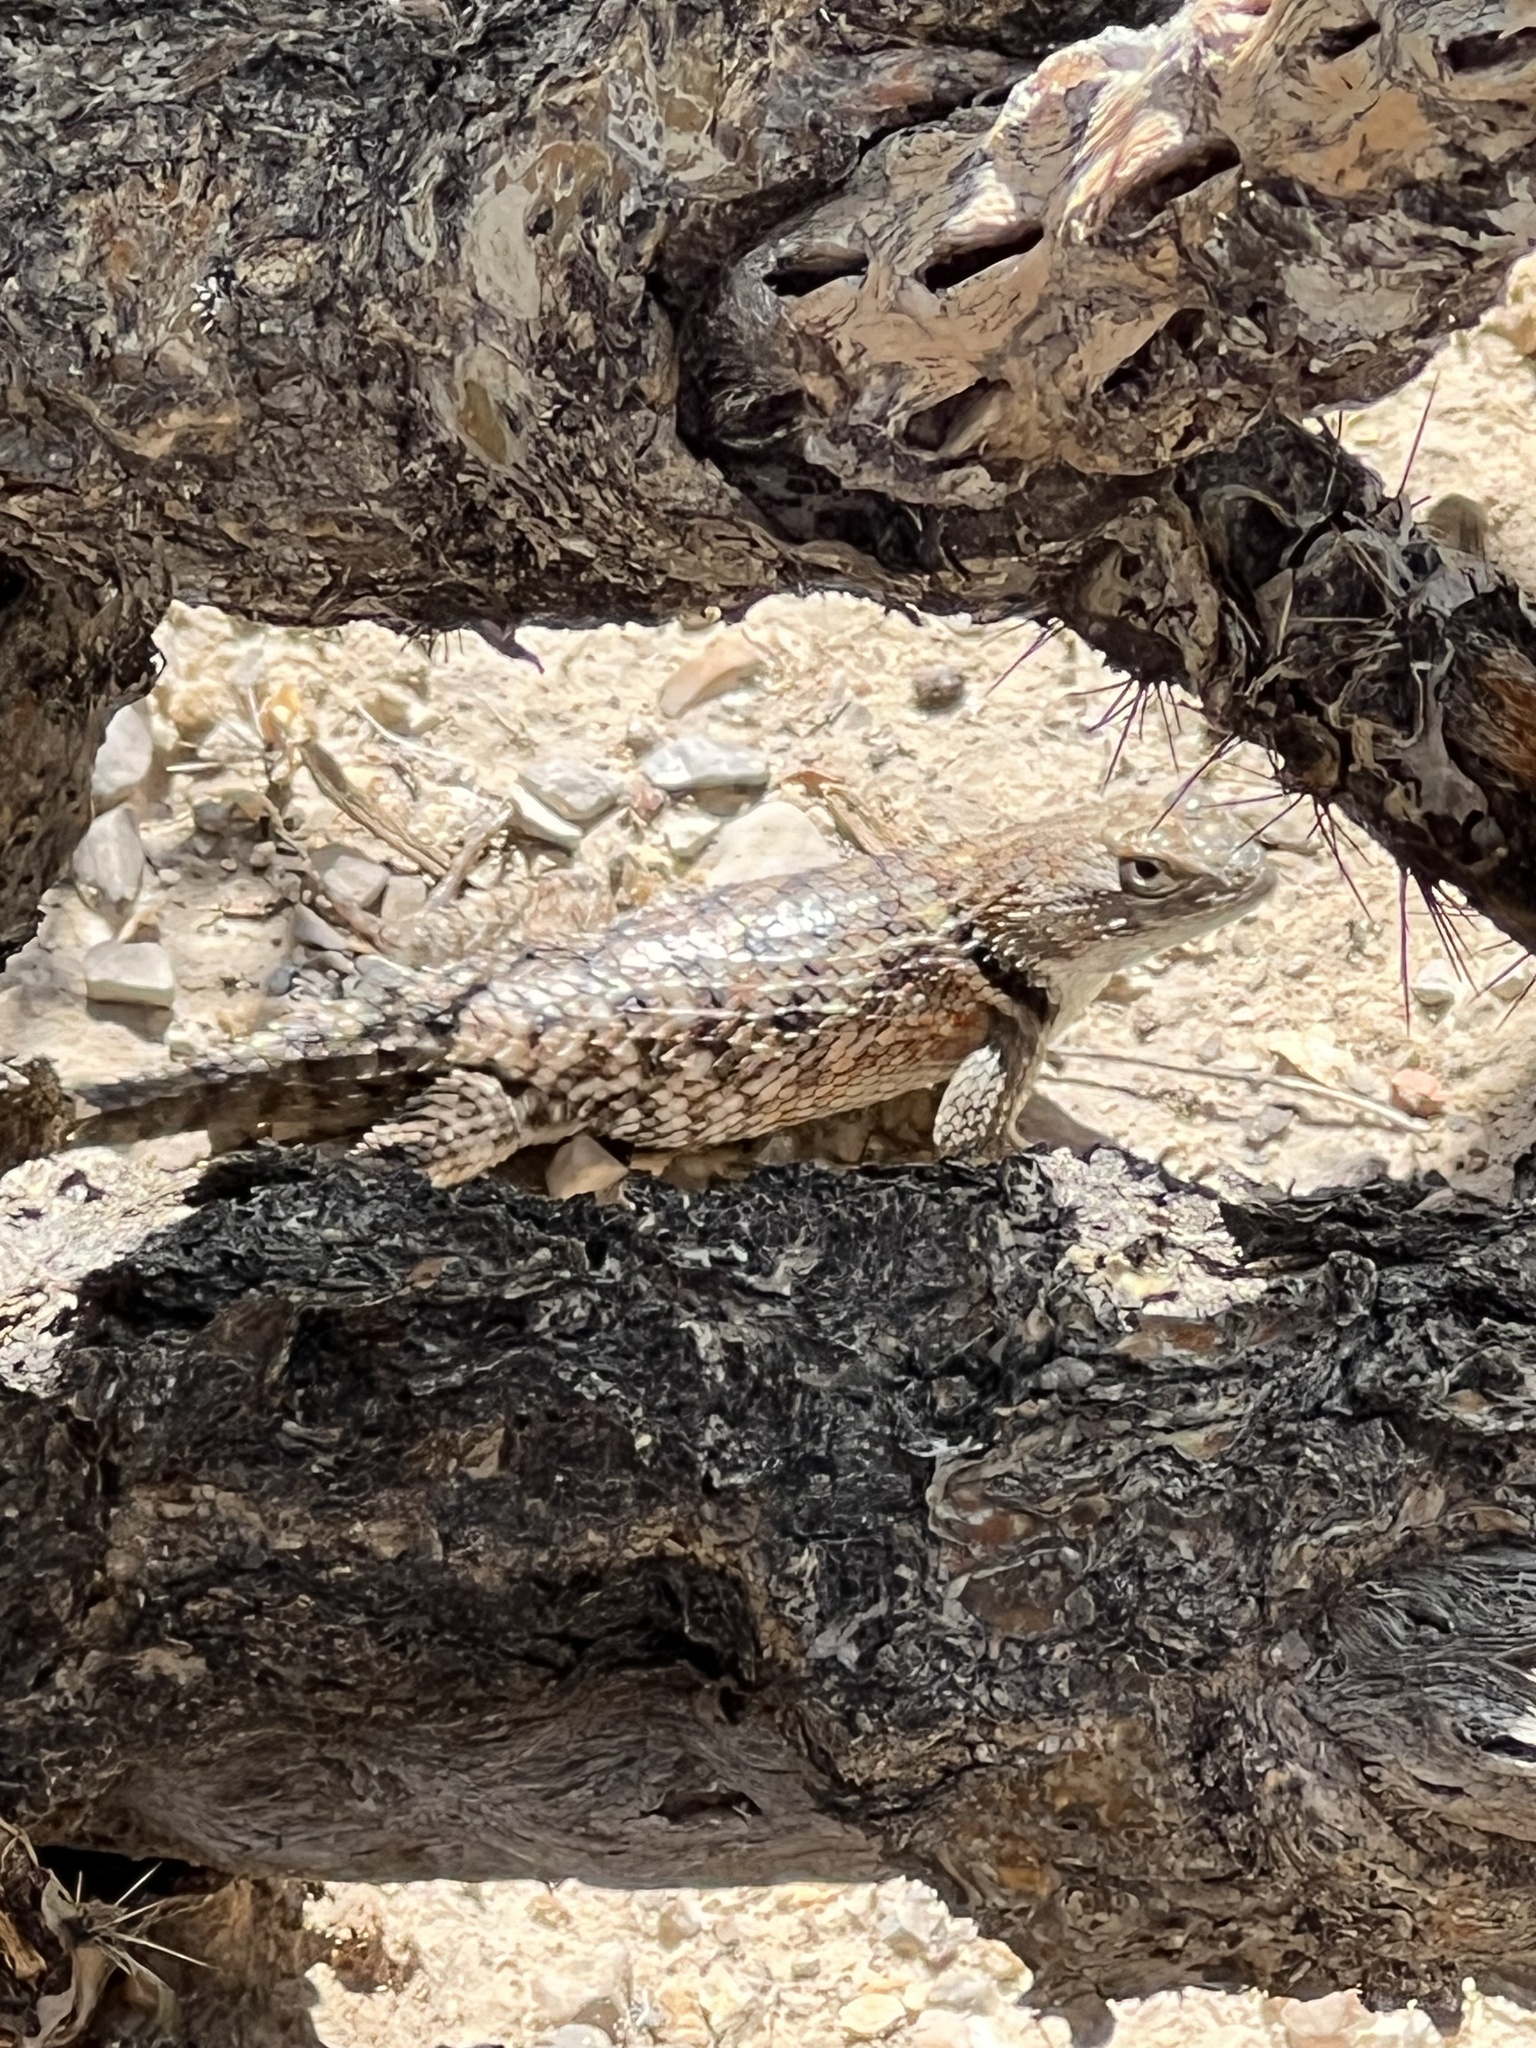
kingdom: Animalia
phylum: Chordata
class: Squamata
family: Phrynosomatidae
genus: Sceloporus
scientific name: Sceloporus uniformis
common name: Yellow-backed spiny lizard
